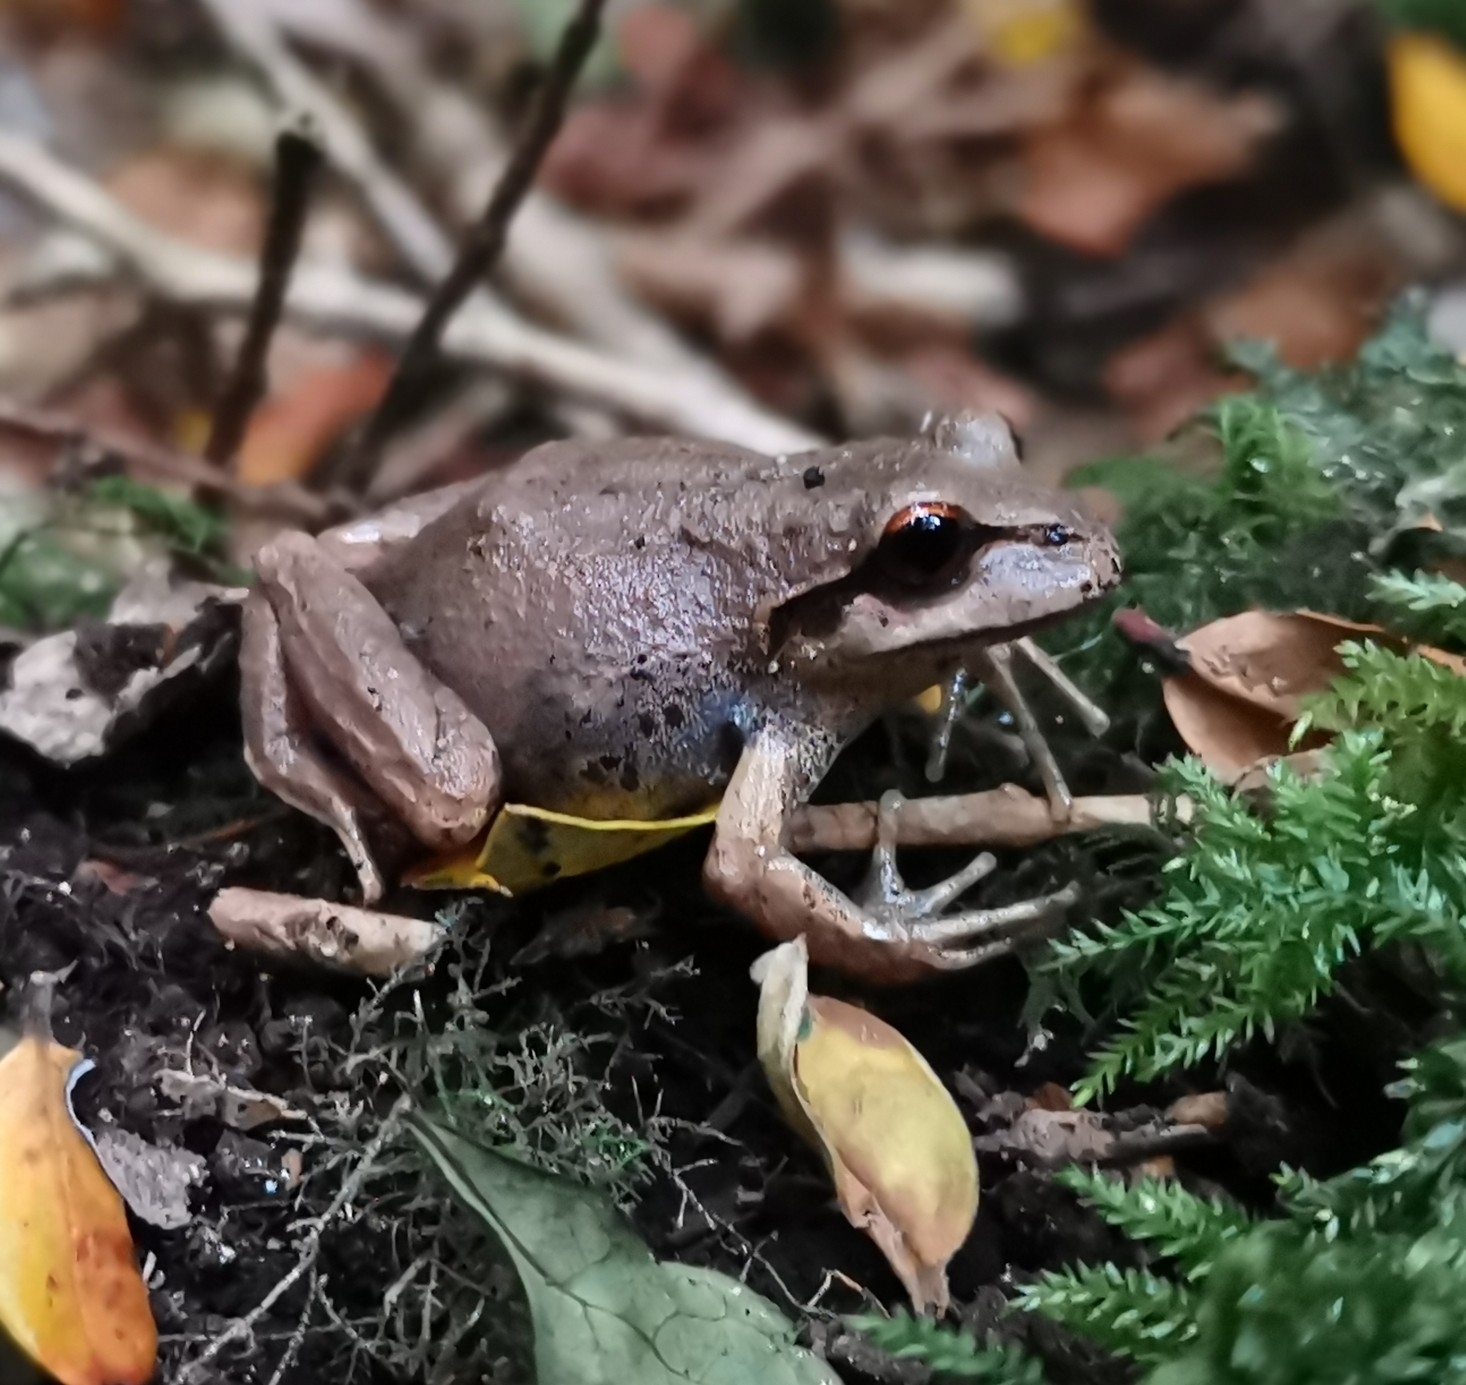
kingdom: Animalia
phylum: Chordata
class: Amphibia
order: Anura
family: Batrachylidae
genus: Batrachyla
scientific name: Batrachyla taeniata
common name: Banded wood frog
